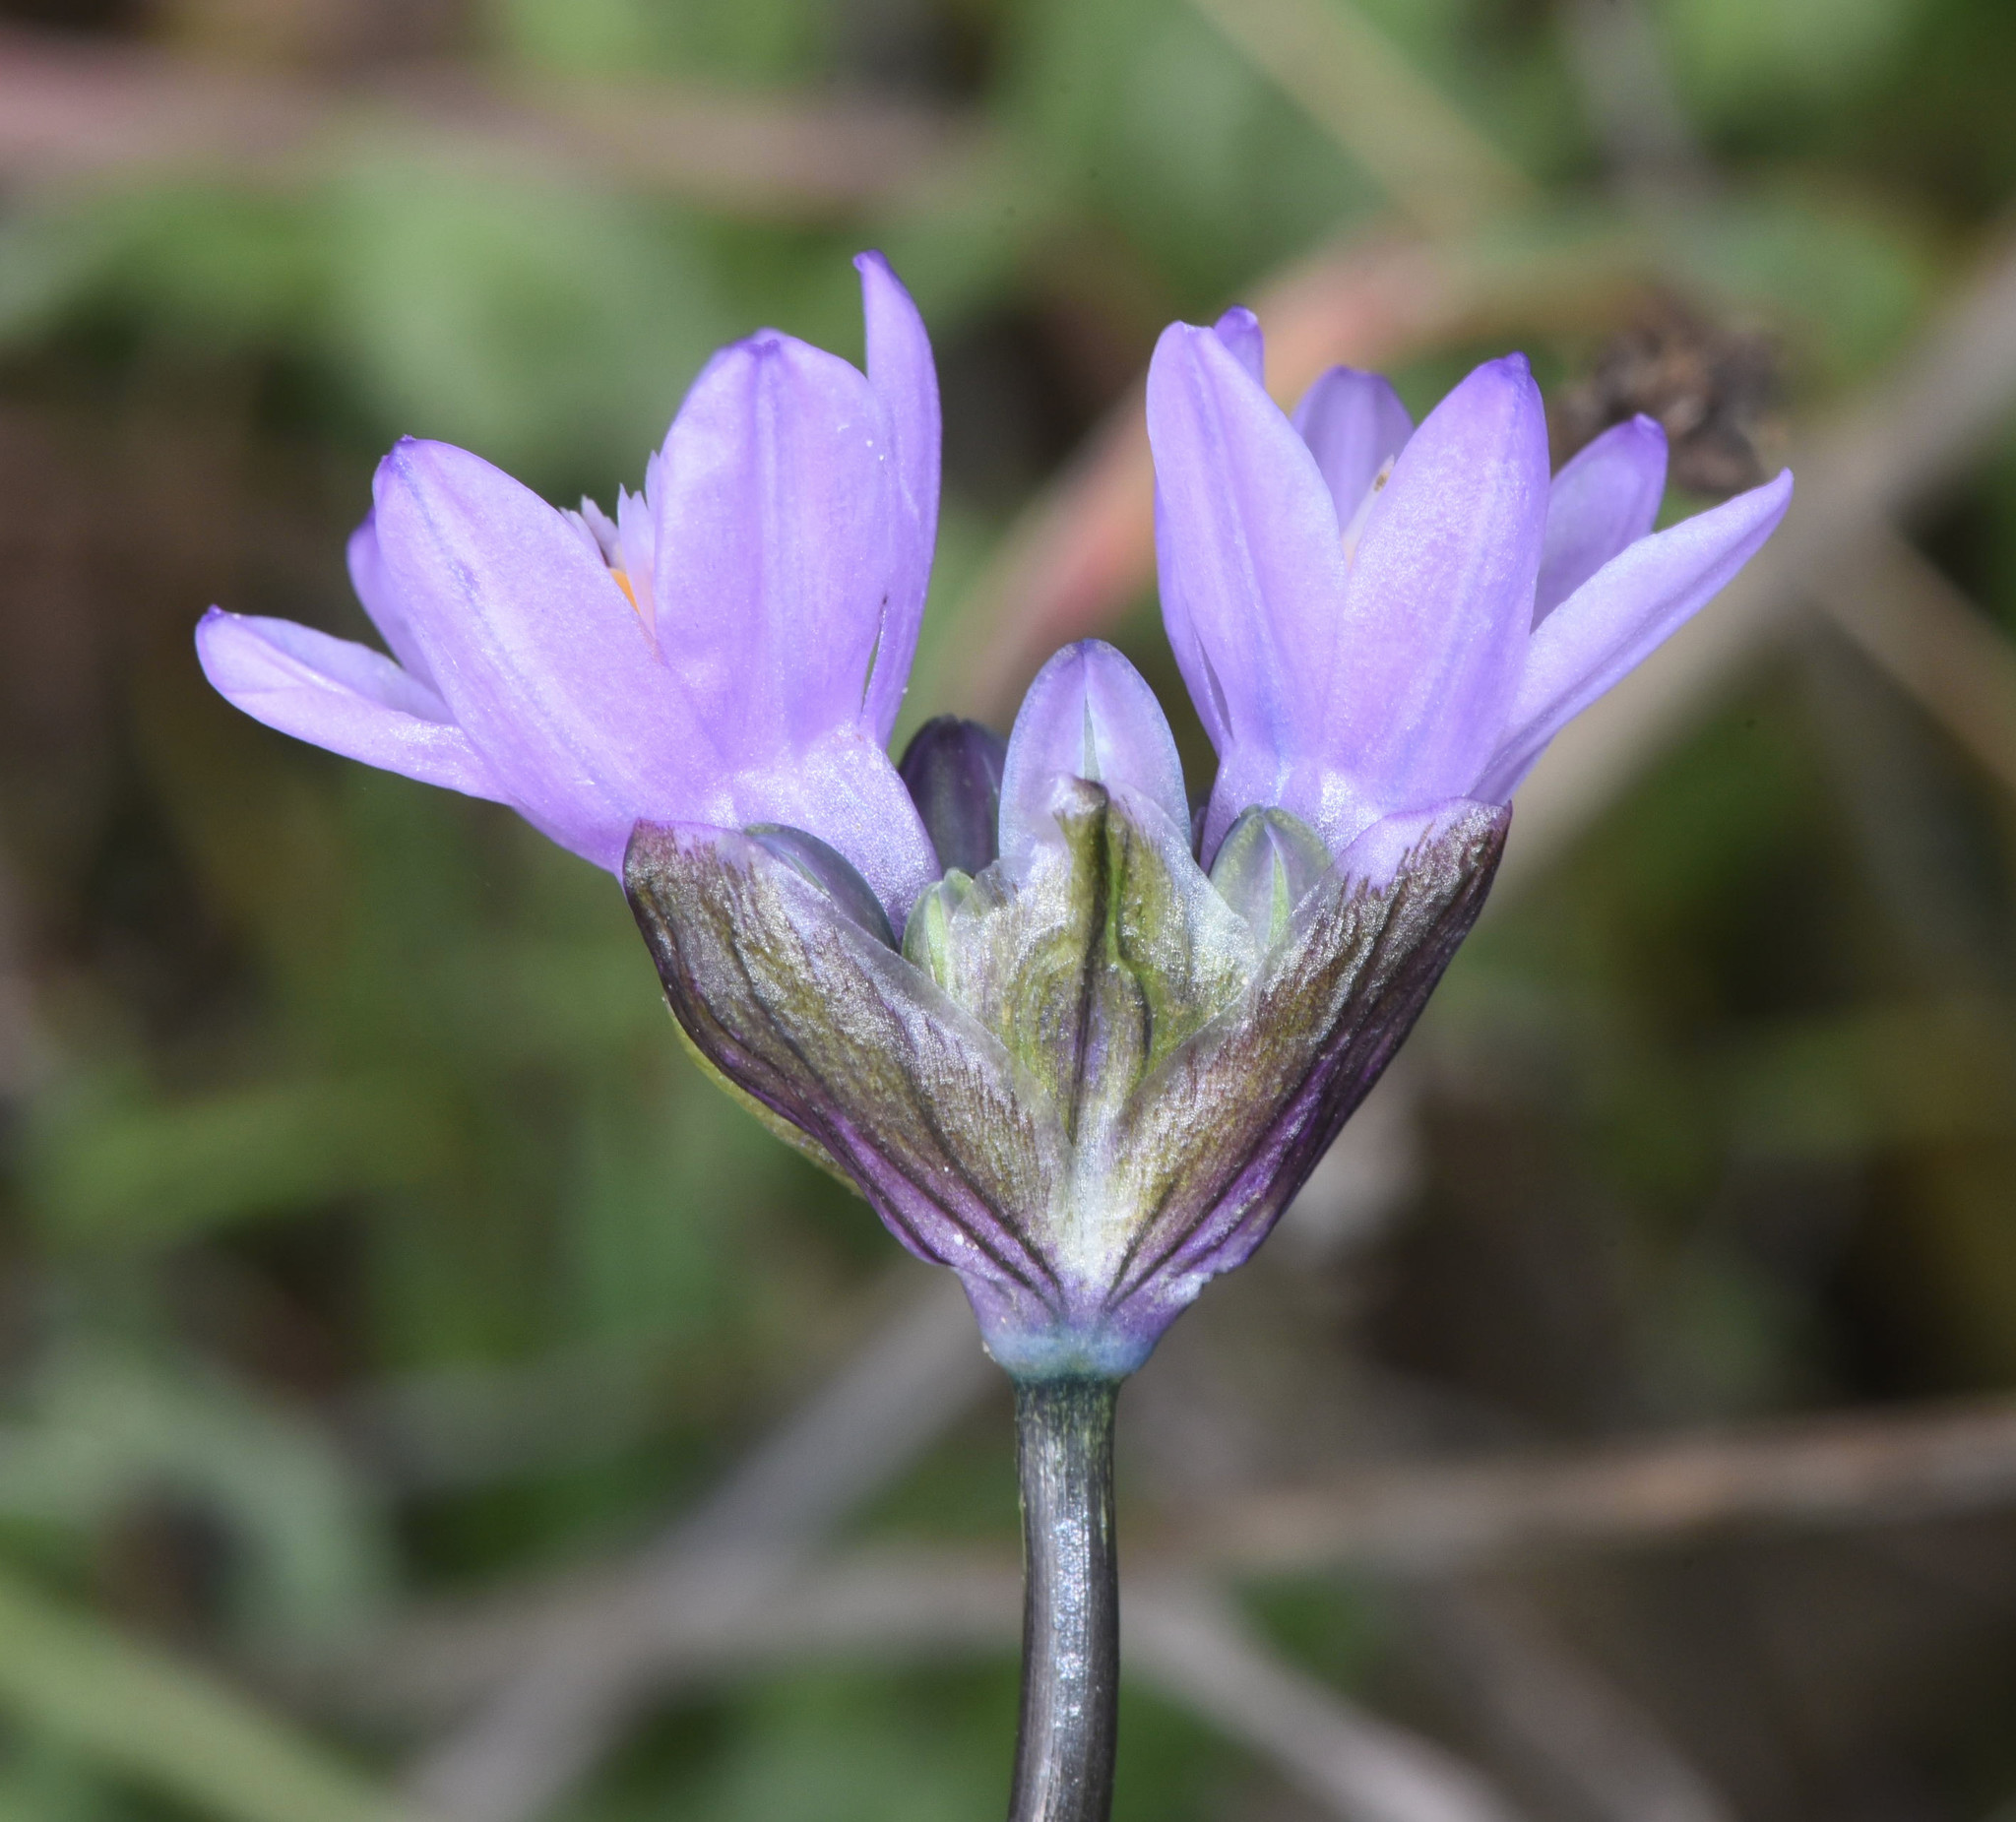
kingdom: Plantae
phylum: Tracheophyta
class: Liliopsida
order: Asparagales
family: Asparagaceae
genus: Dipterostemon
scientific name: Dipterostemon capitatus
